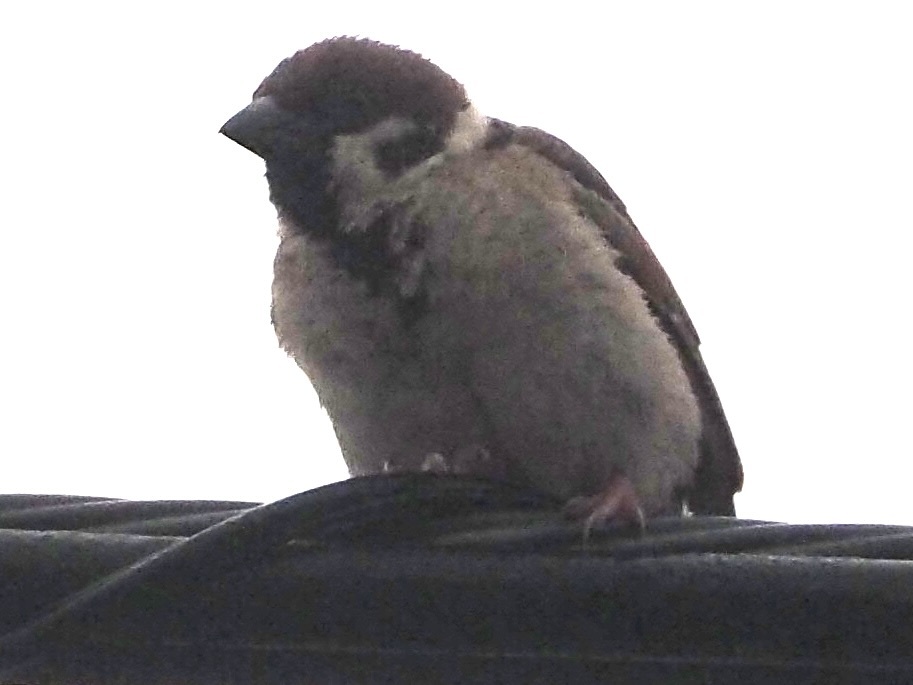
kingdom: Animalia
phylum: Chordata
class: Aves
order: Passeriformes
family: Passeridae
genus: Passer
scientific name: Passer montanus
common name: Eurasian tree sparrow
